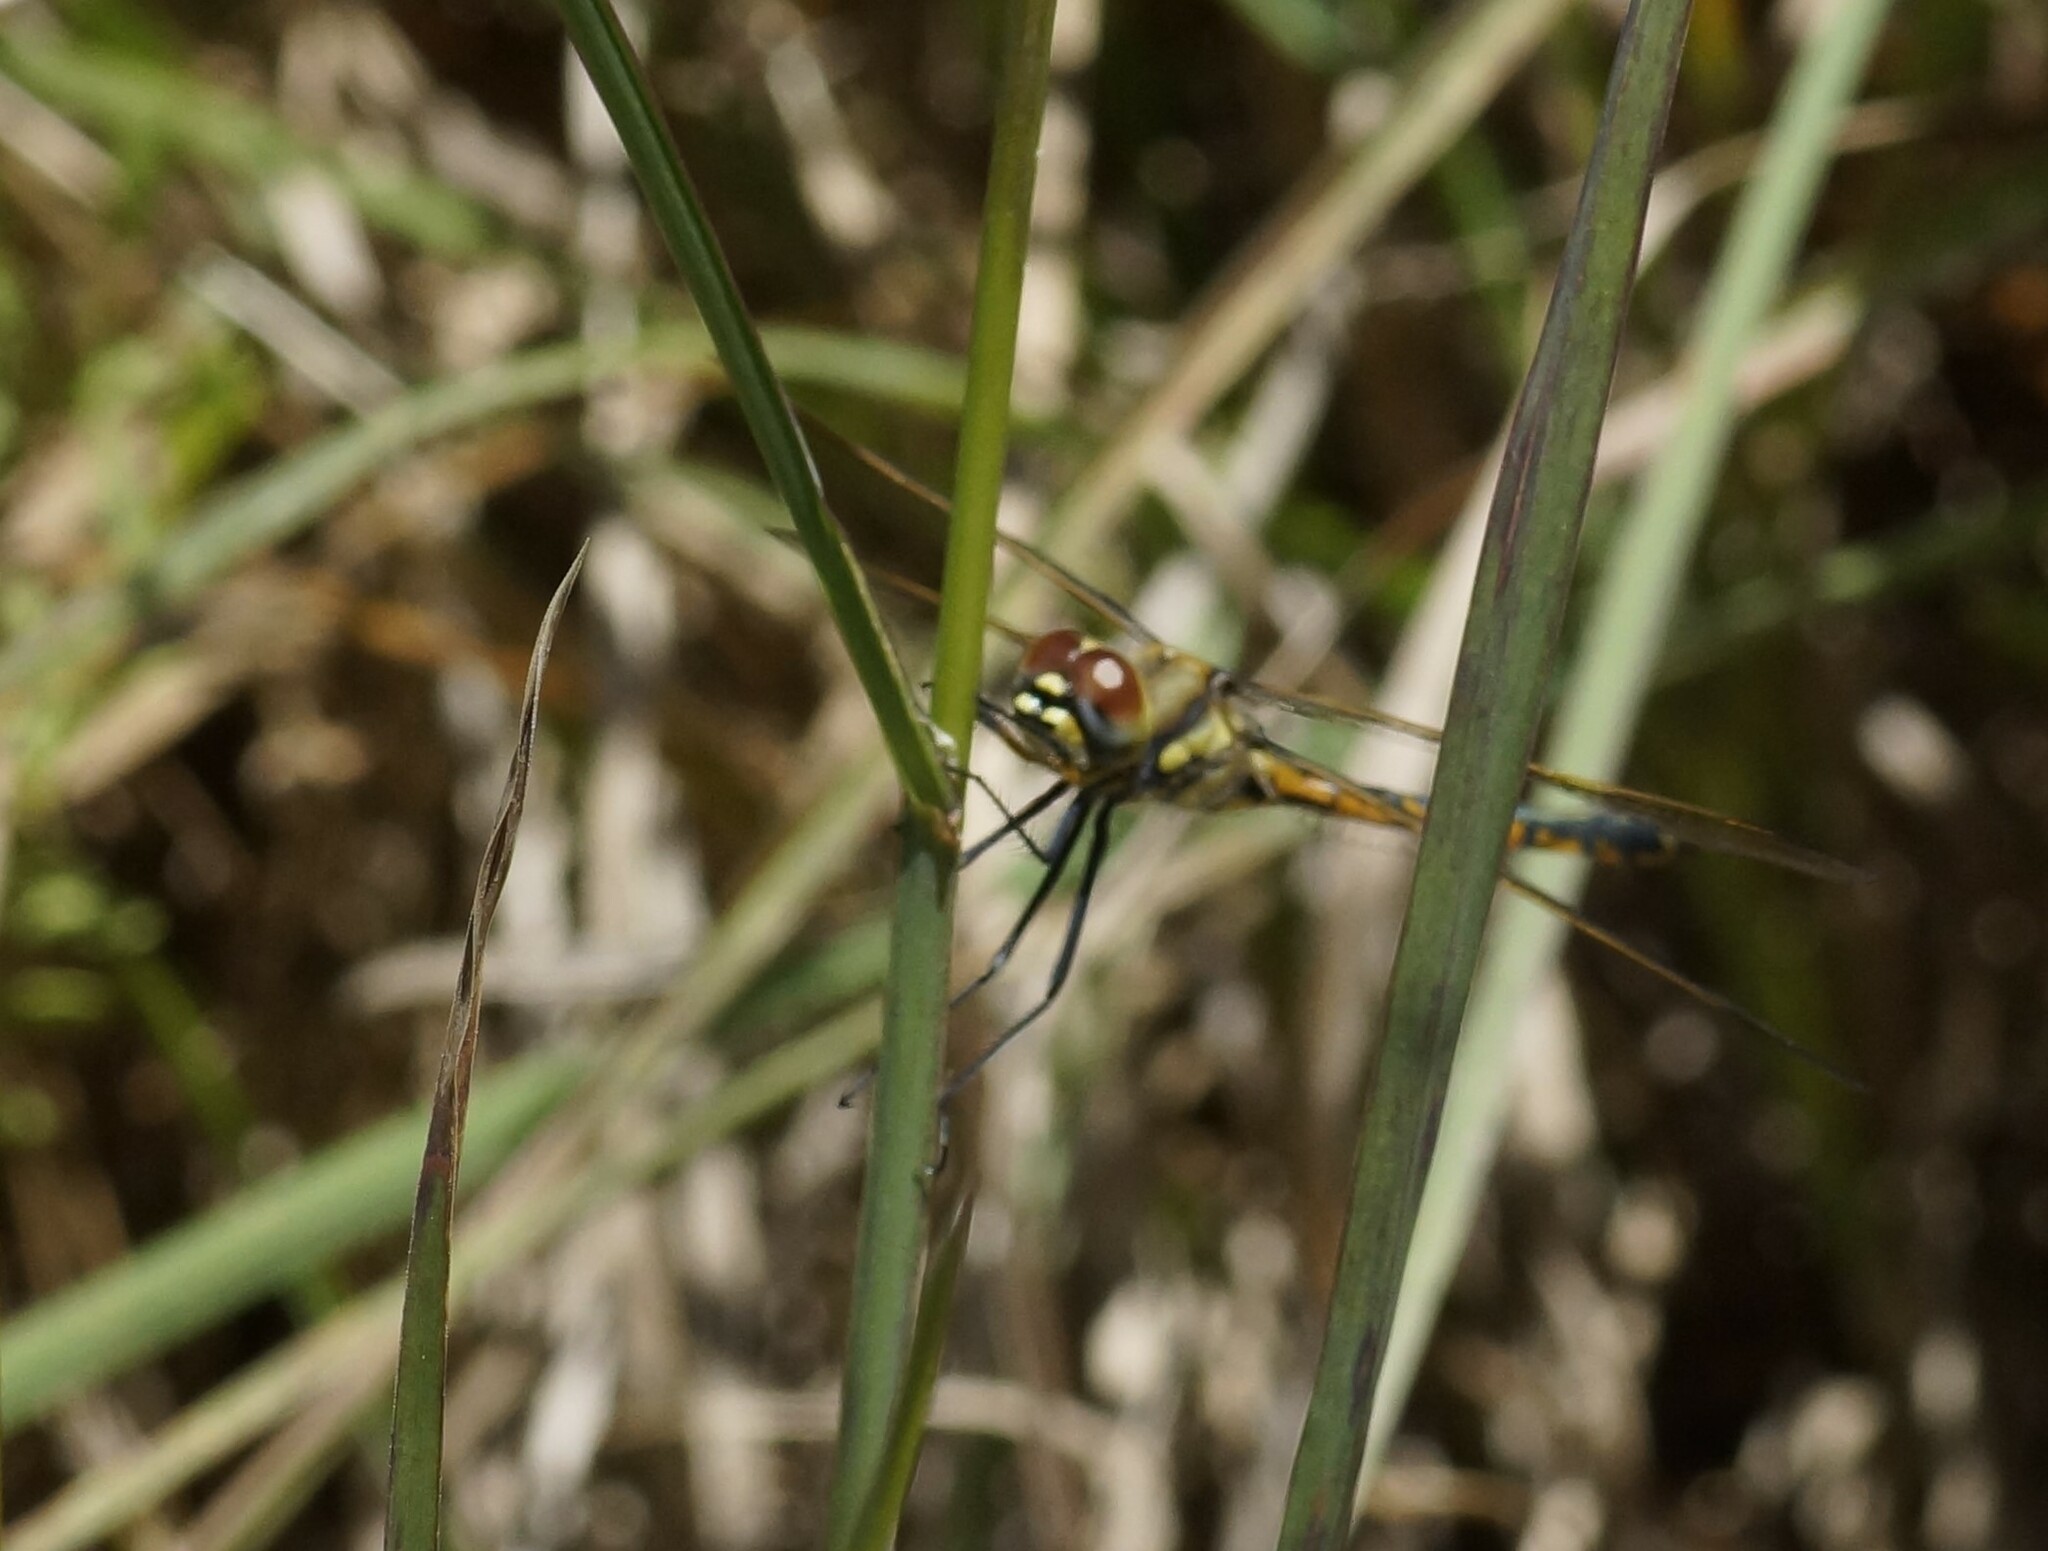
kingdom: Animalia
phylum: Arthropoda
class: Insecta
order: Odonata
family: Corduliidae
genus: Hemicordulia
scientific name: Hemicordulia tau
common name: Tau emerald
